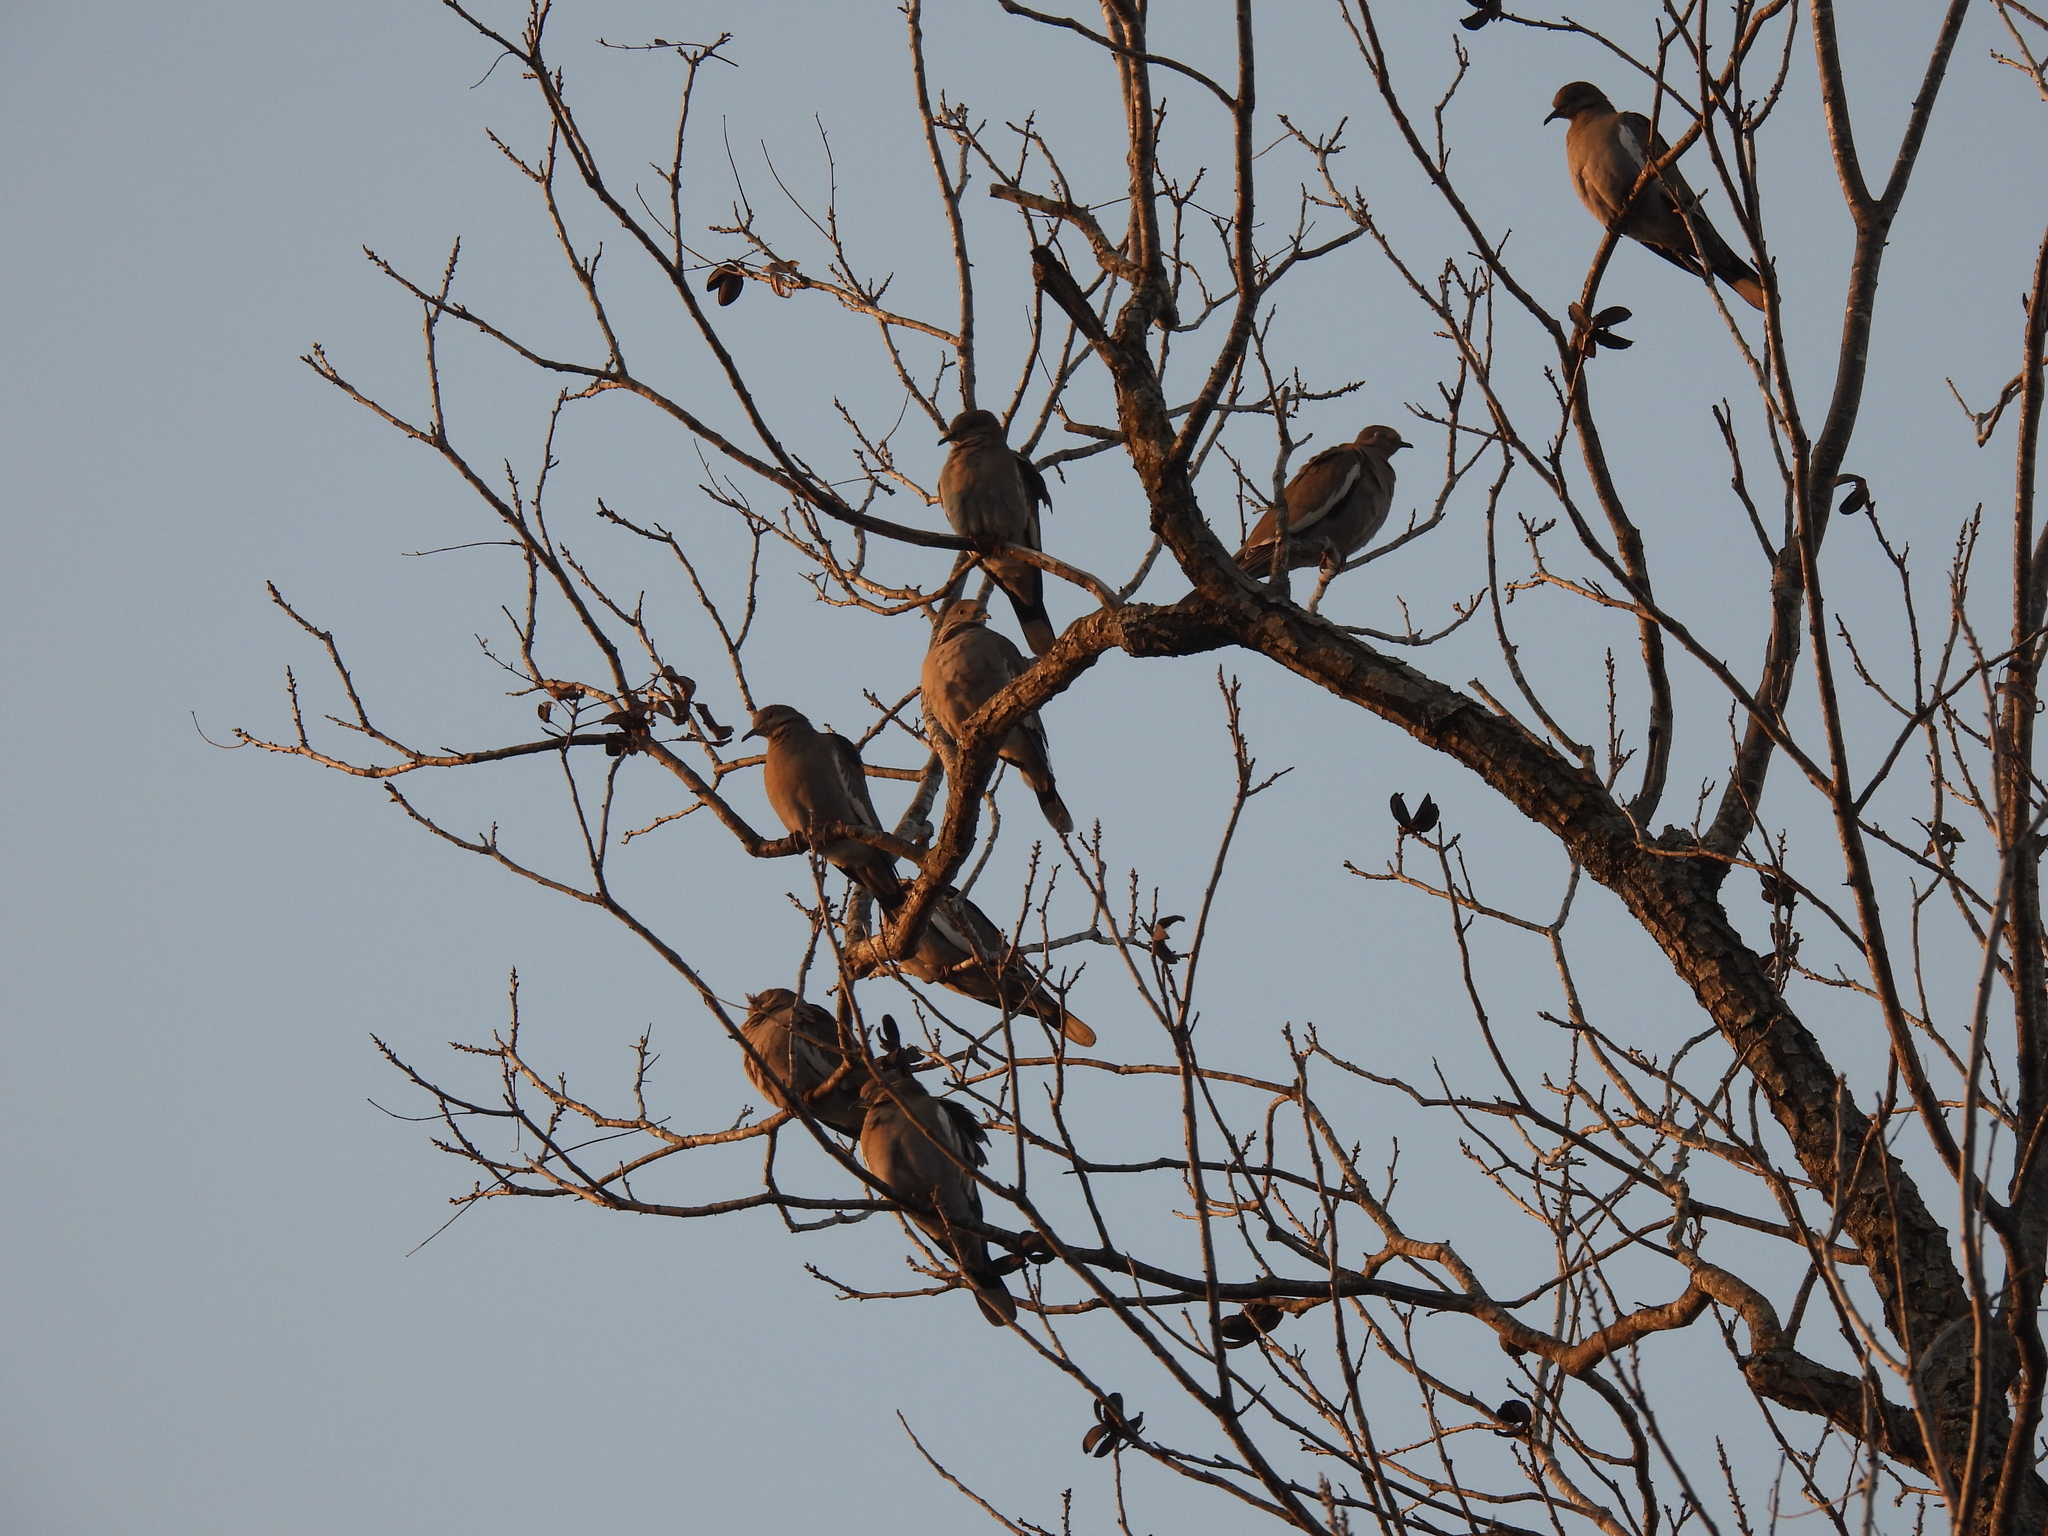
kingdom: Animalia
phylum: Chordata
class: Aves
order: Columbiformes
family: Columbidae
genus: Zenaida
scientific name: Zenaida asiatica
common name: White-winged dove
